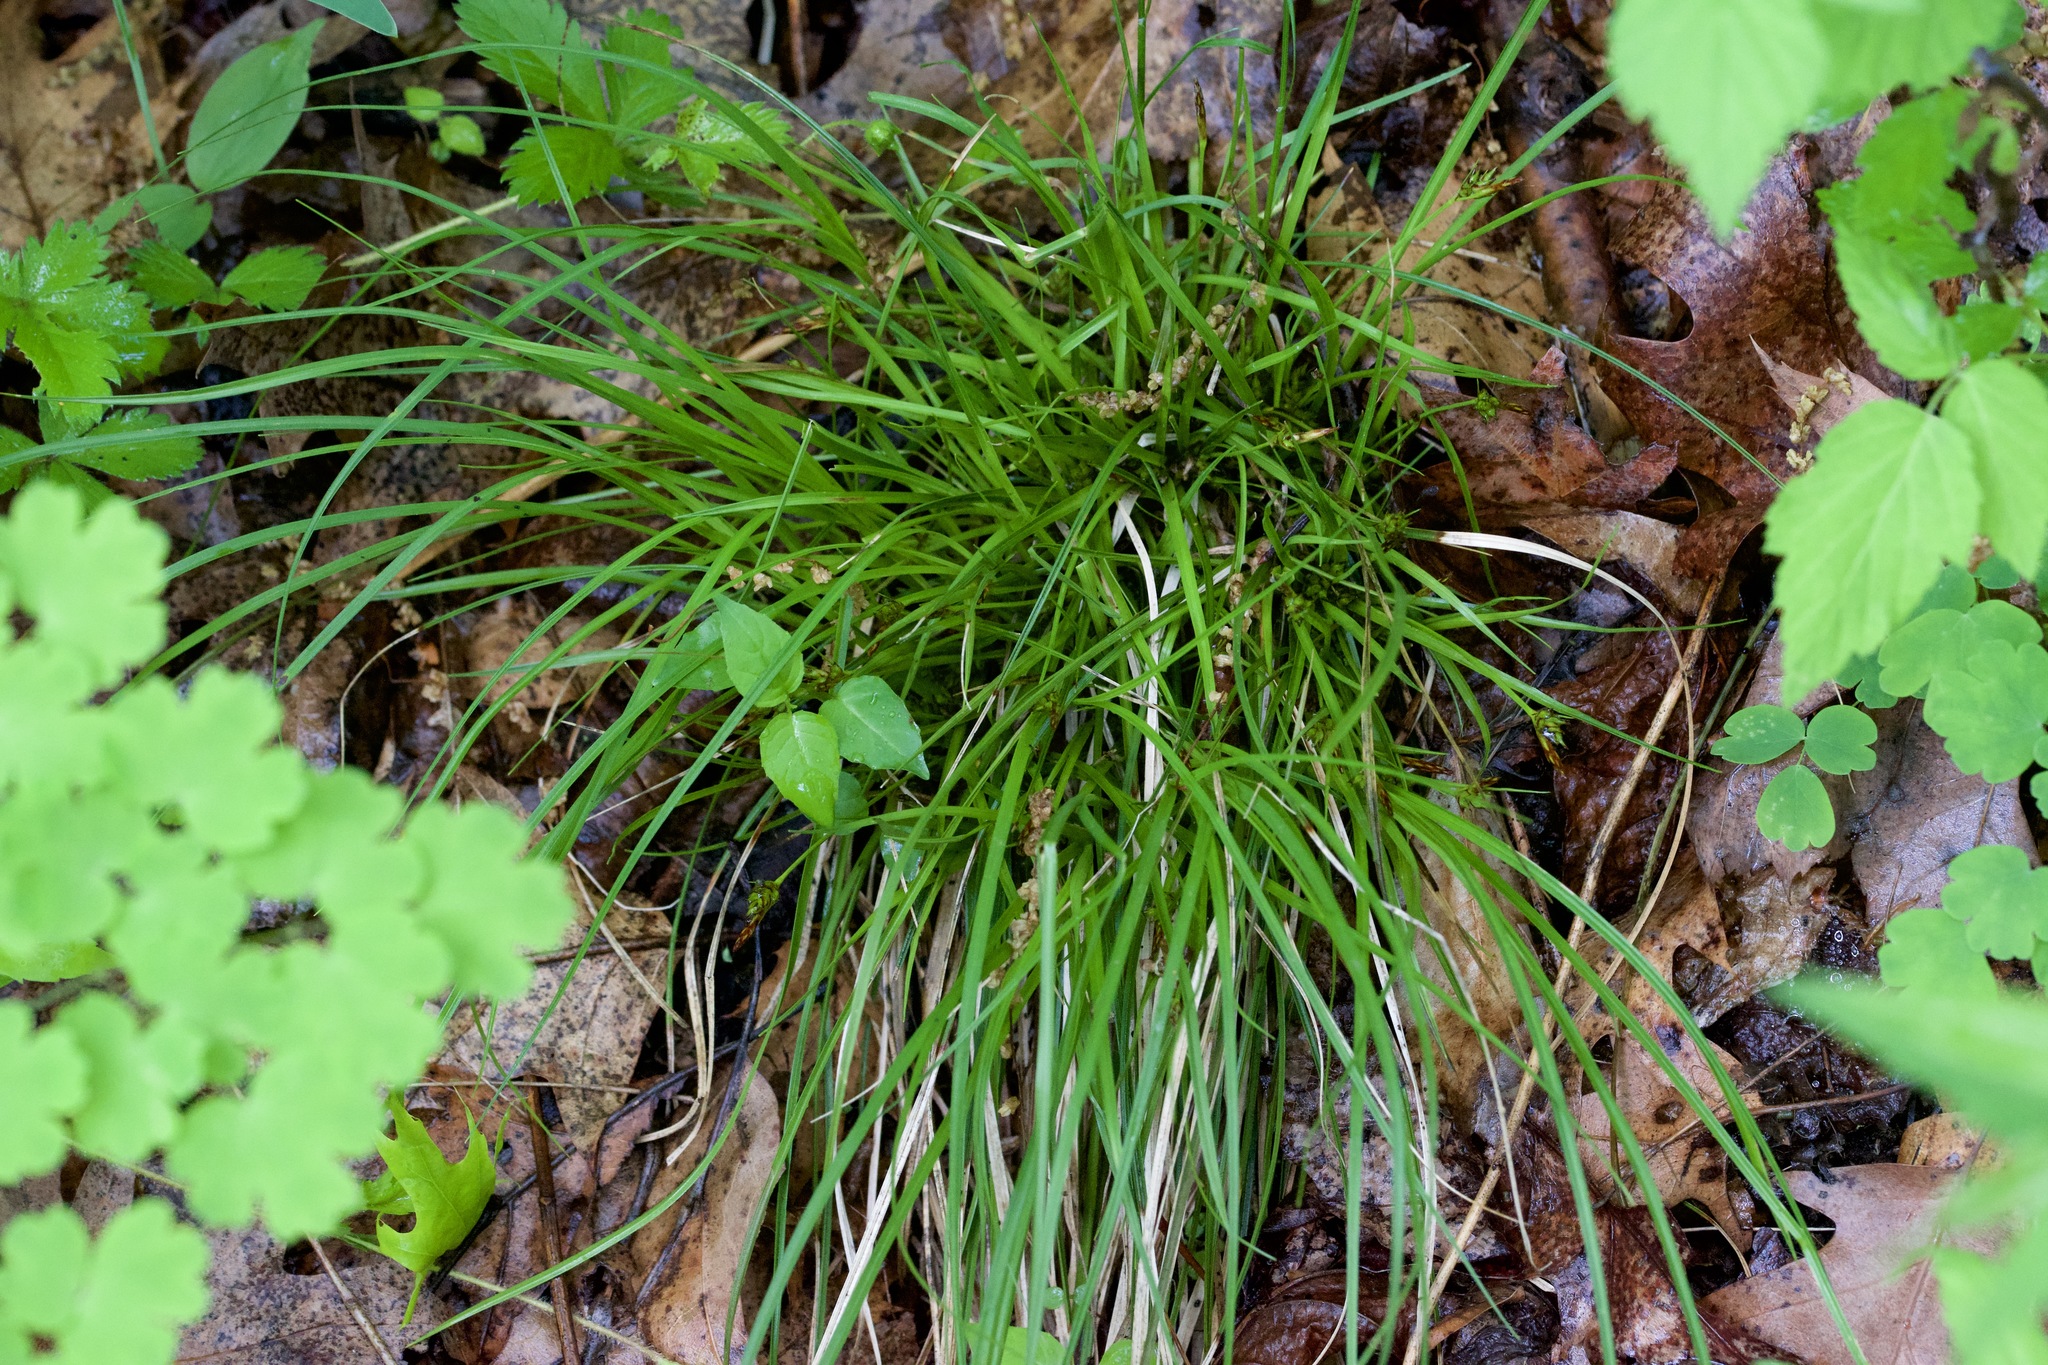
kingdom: Plantae
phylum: Tracheophyta
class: Liliopsida
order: Poales
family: Cyperaceae
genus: Carex
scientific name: Carex tonsa
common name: Bald sedge
